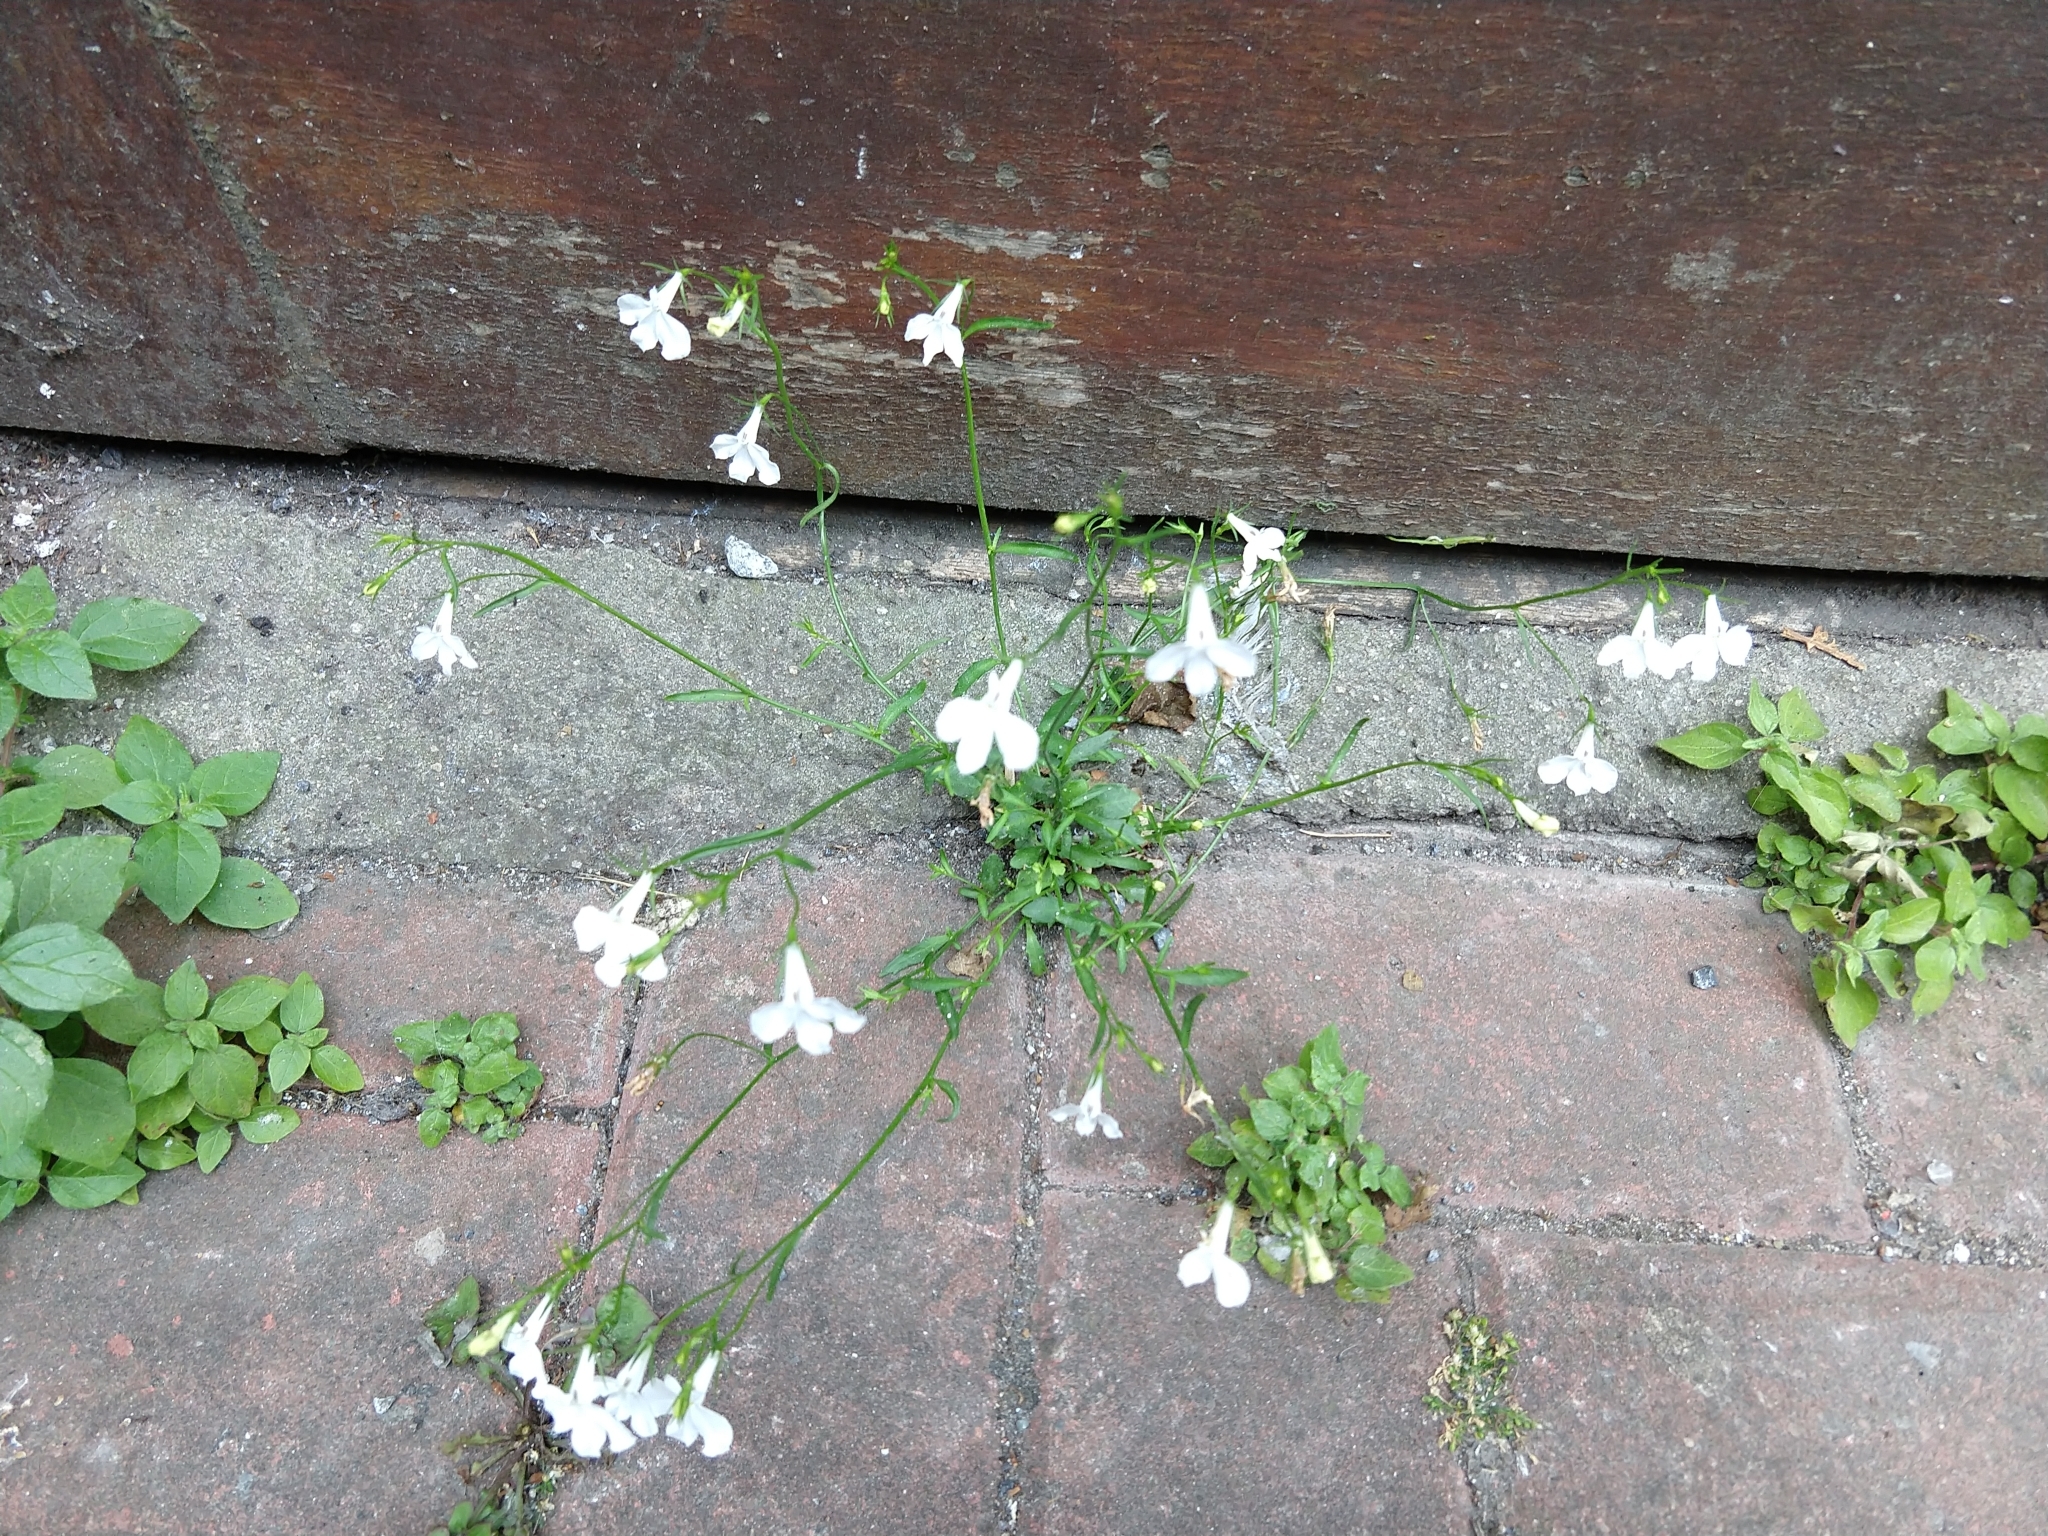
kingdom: Plantae
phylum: Tracheophyta
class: Magnoliopsida
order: Asterales
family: Campanulaceae
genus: Lobelia
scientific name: Lobelia erinus
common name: Edging lobelia
